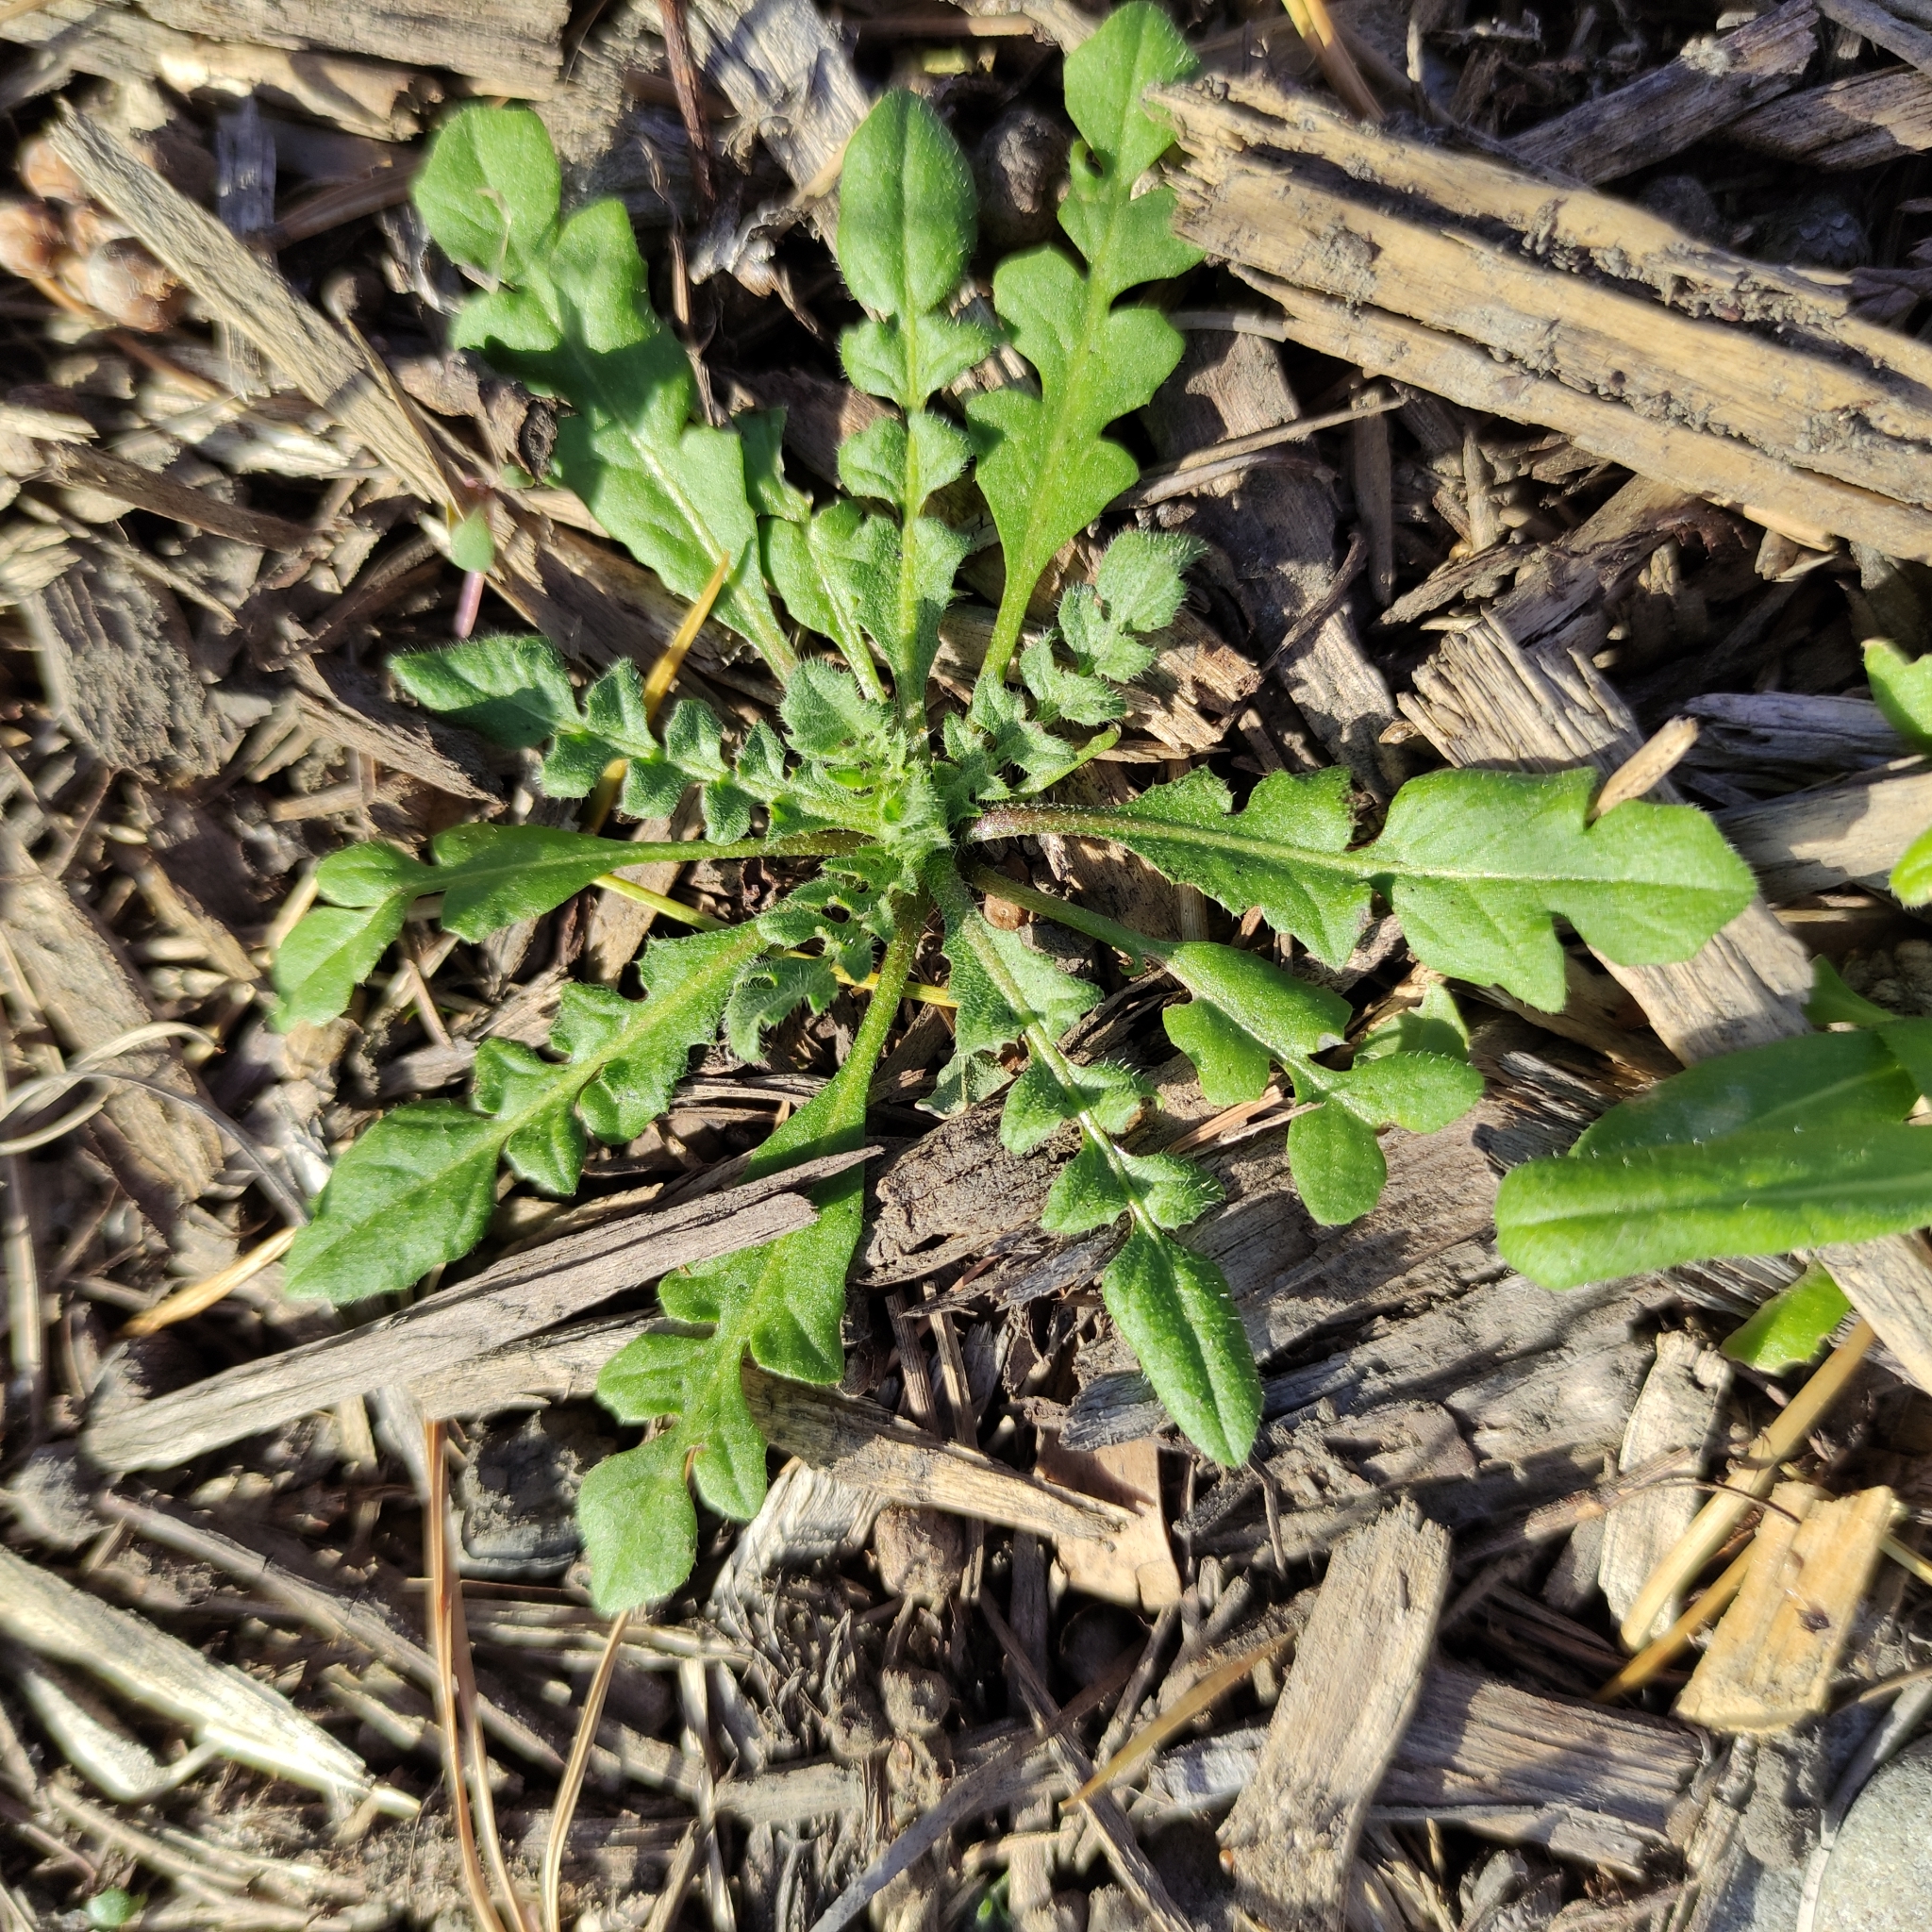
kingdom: Plantae
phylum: Tracheophyta
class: Magnoliopsida
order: Brassicales
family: Brassicaceae
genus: Capsella
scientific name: Capsella bursa-pastoris
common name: Shepherd's purse
